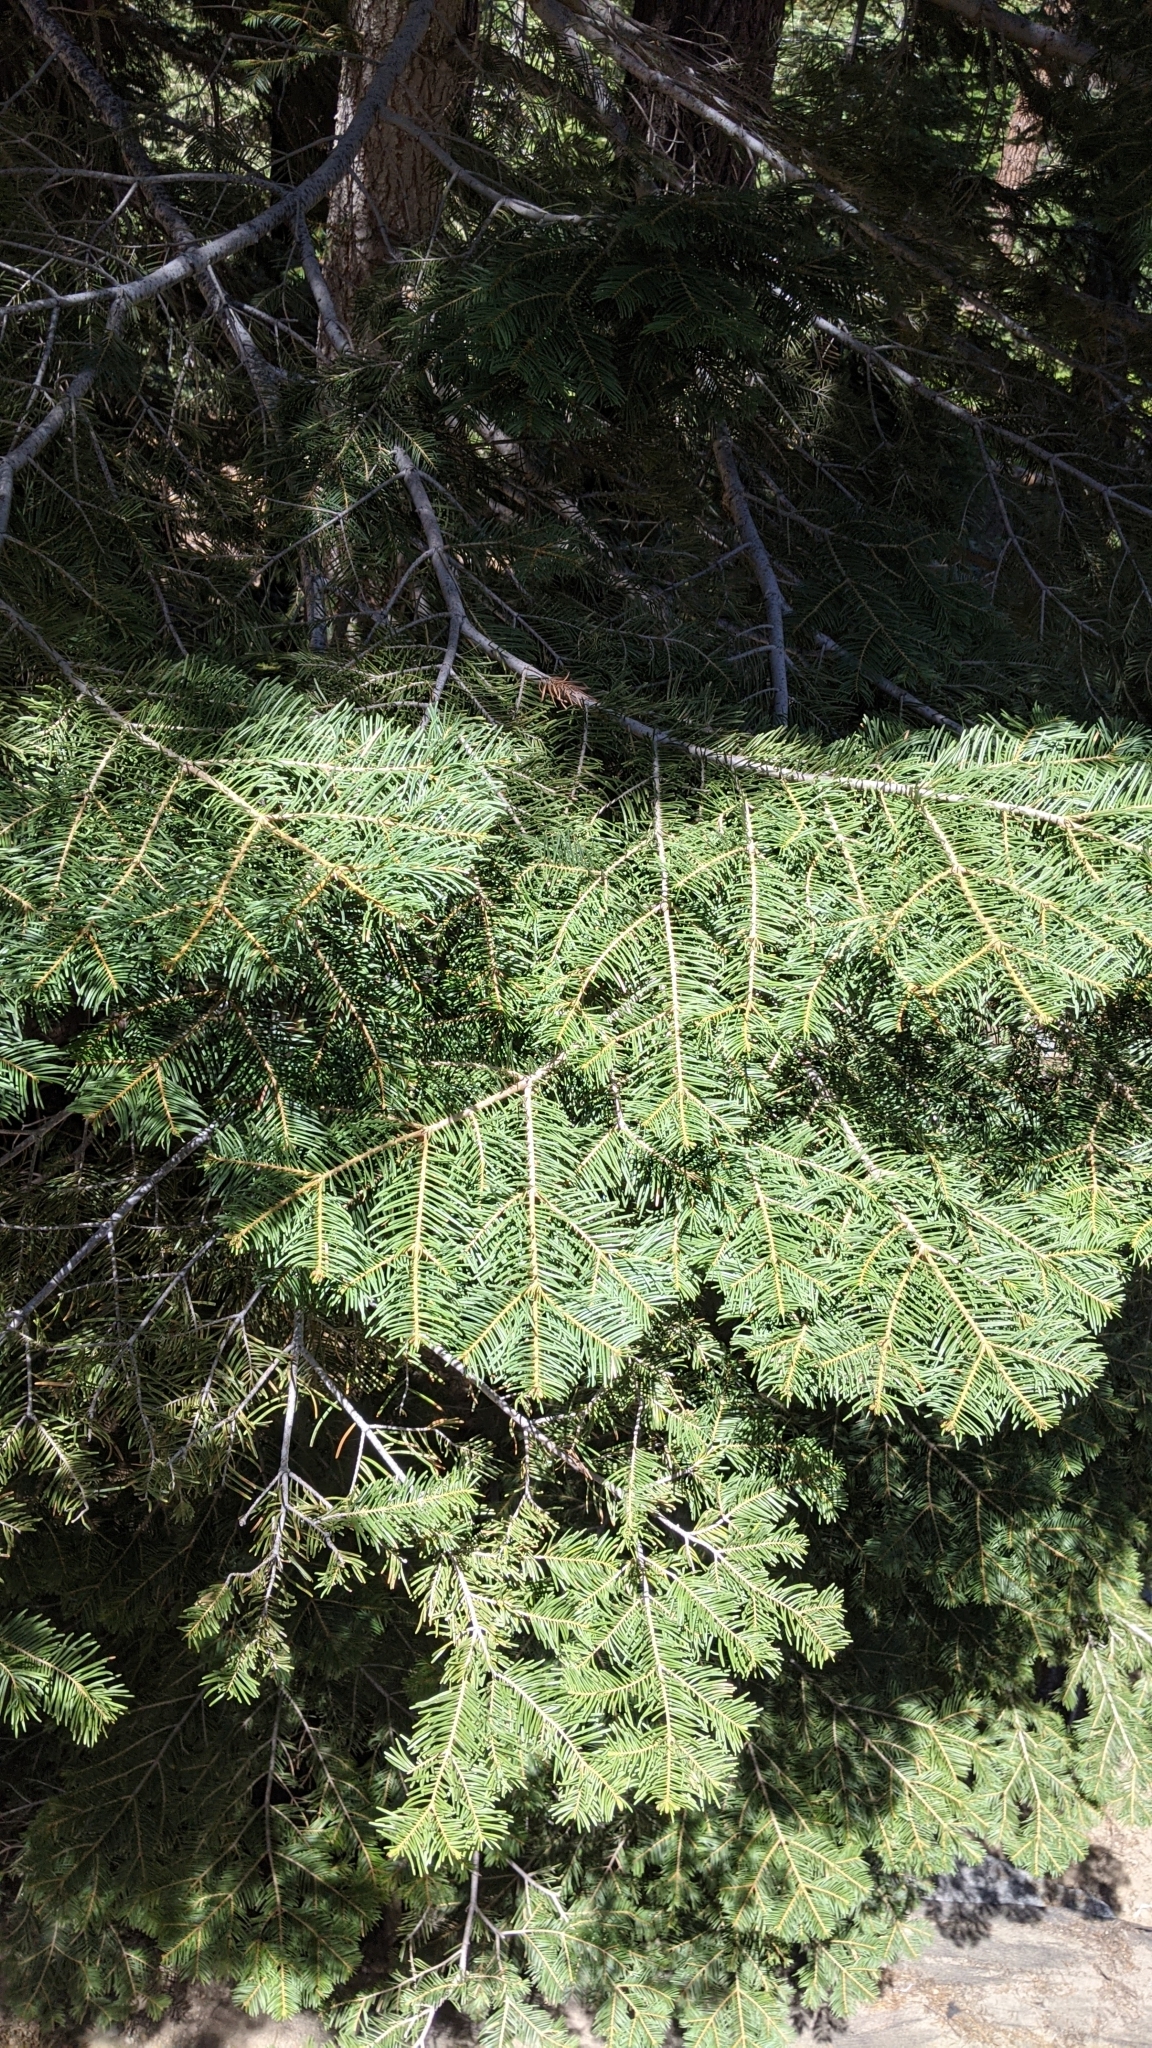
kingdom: Plantae
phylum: Tracheophyta
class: Pinopsida
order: Pinales
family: Pinaceae
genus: Abies
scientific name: Abies concolor
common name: Colorado fir
